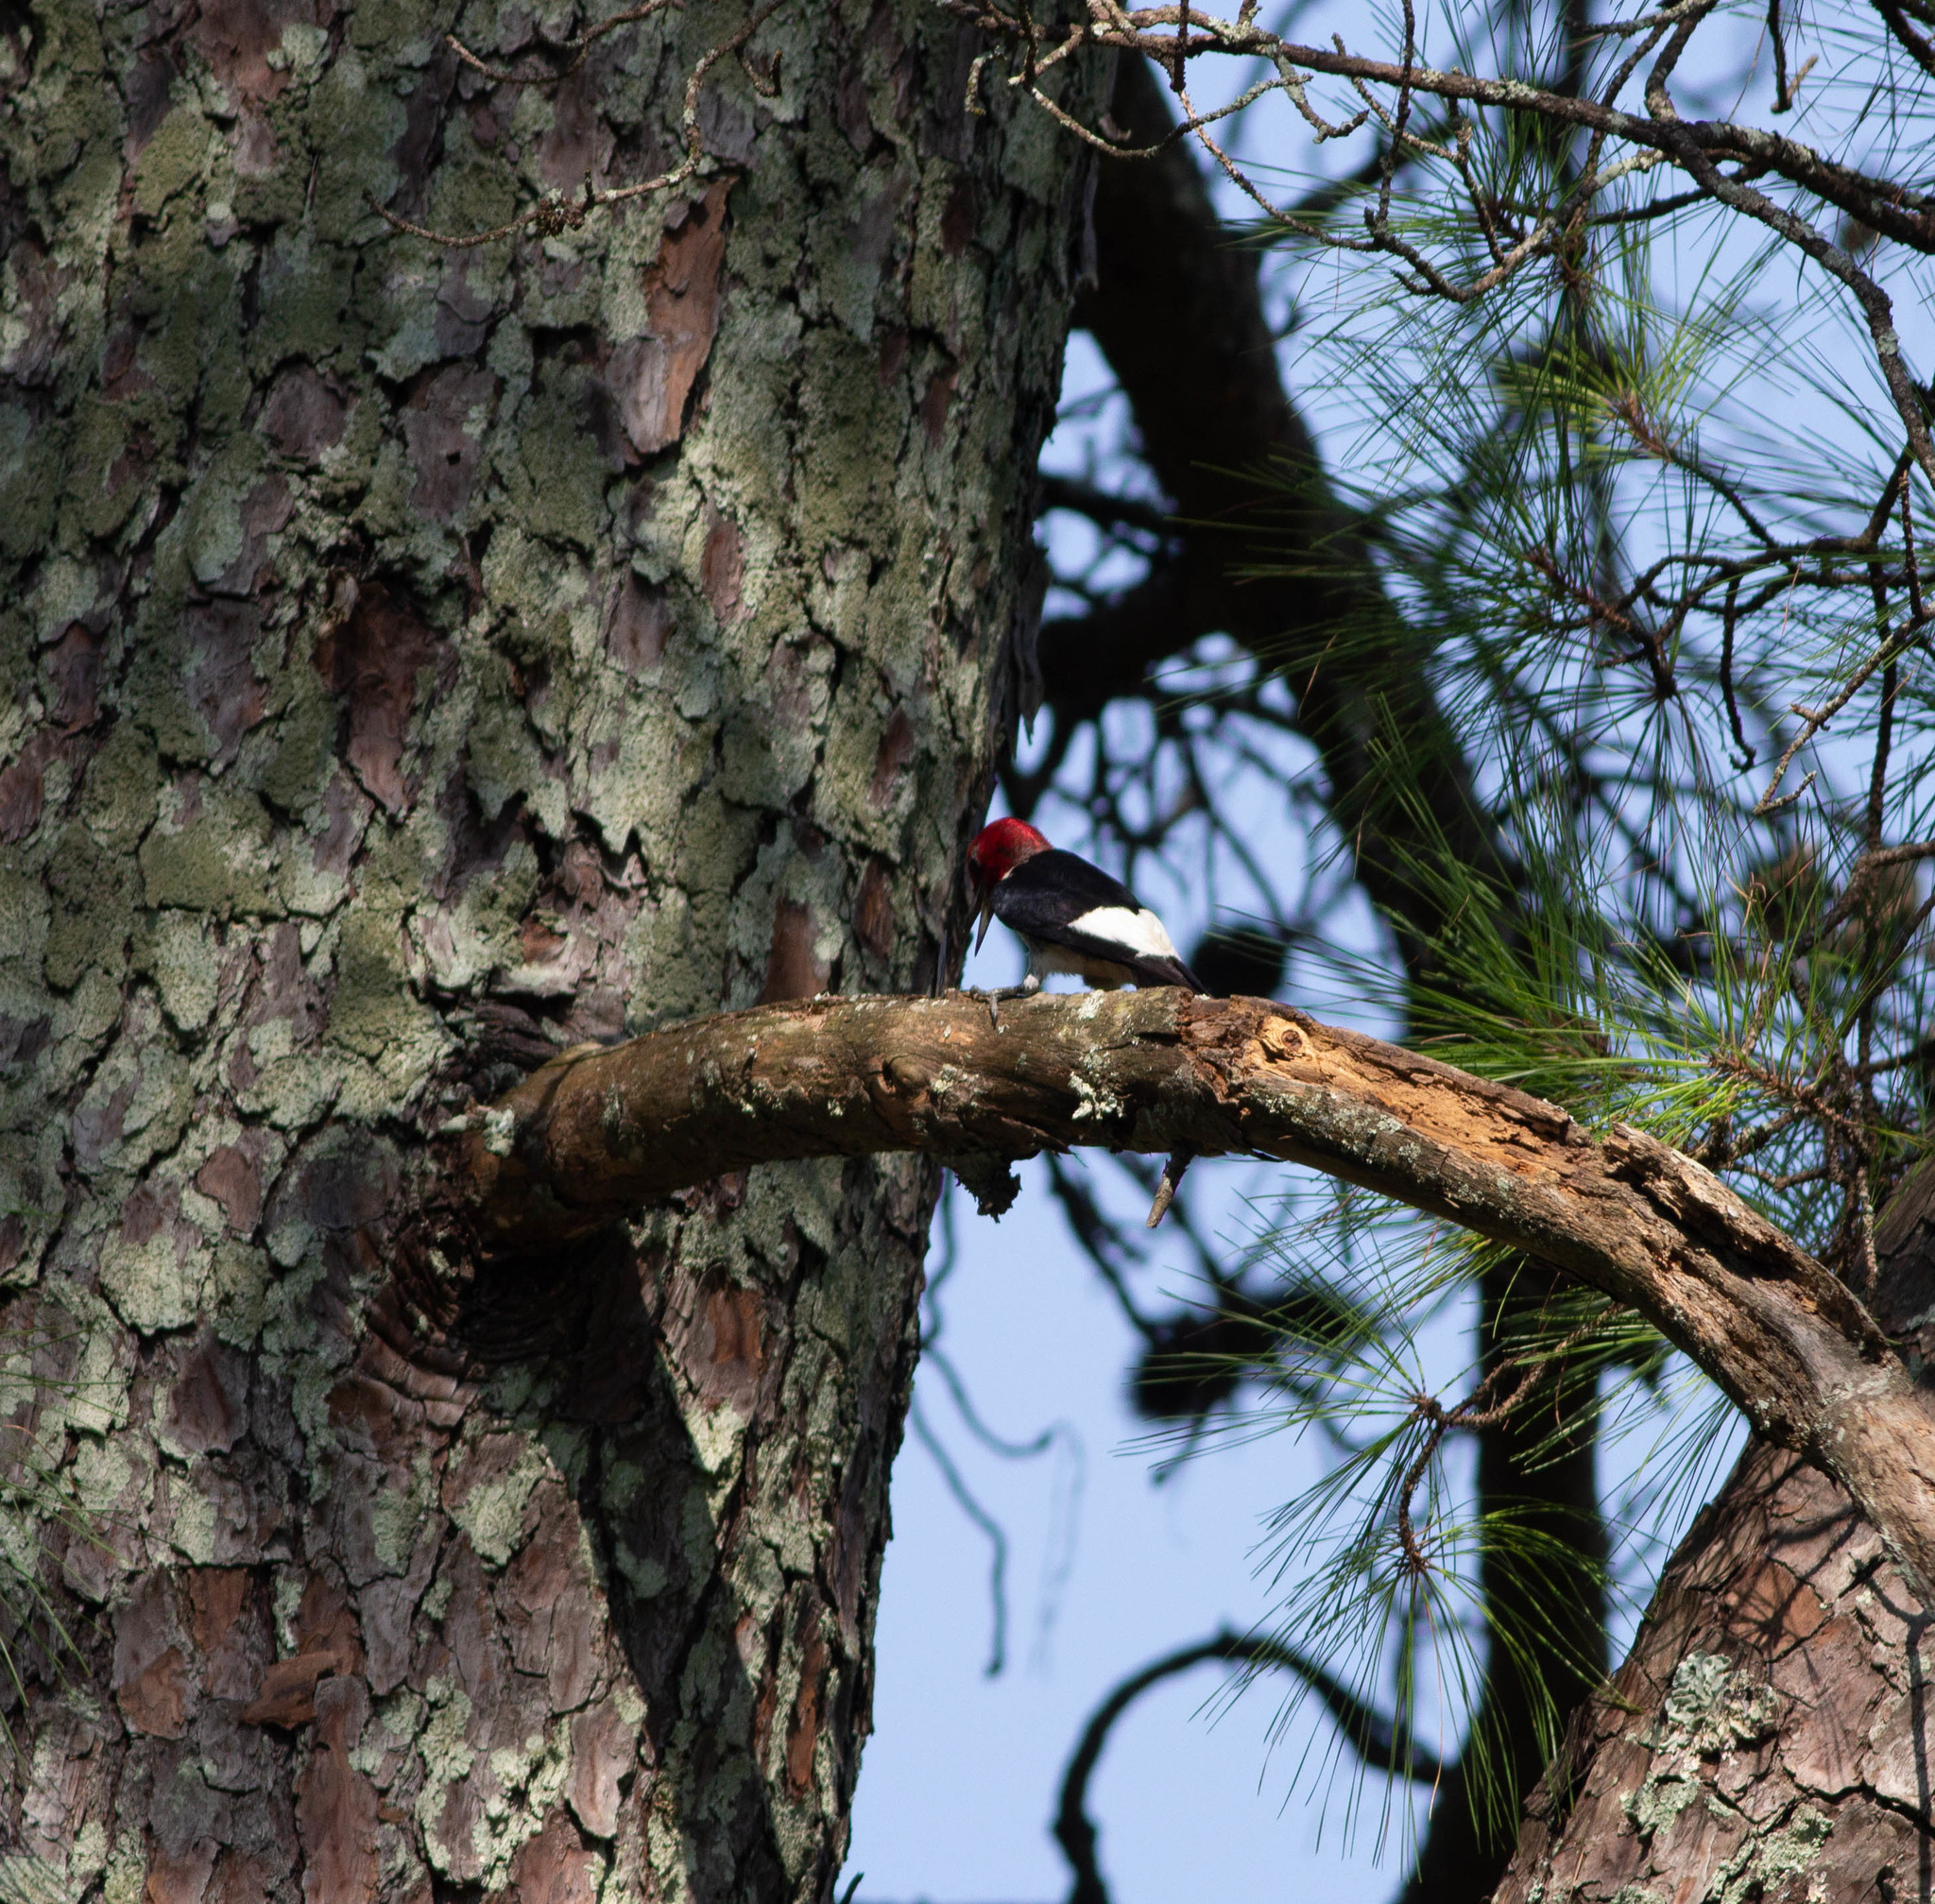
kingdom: Animalia
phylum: Chordata
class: Aves
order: Piciformes
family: Picidae
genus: Melanerpes
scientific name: Melanerpes erythrocephalus
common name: Red-headed woodpecker
